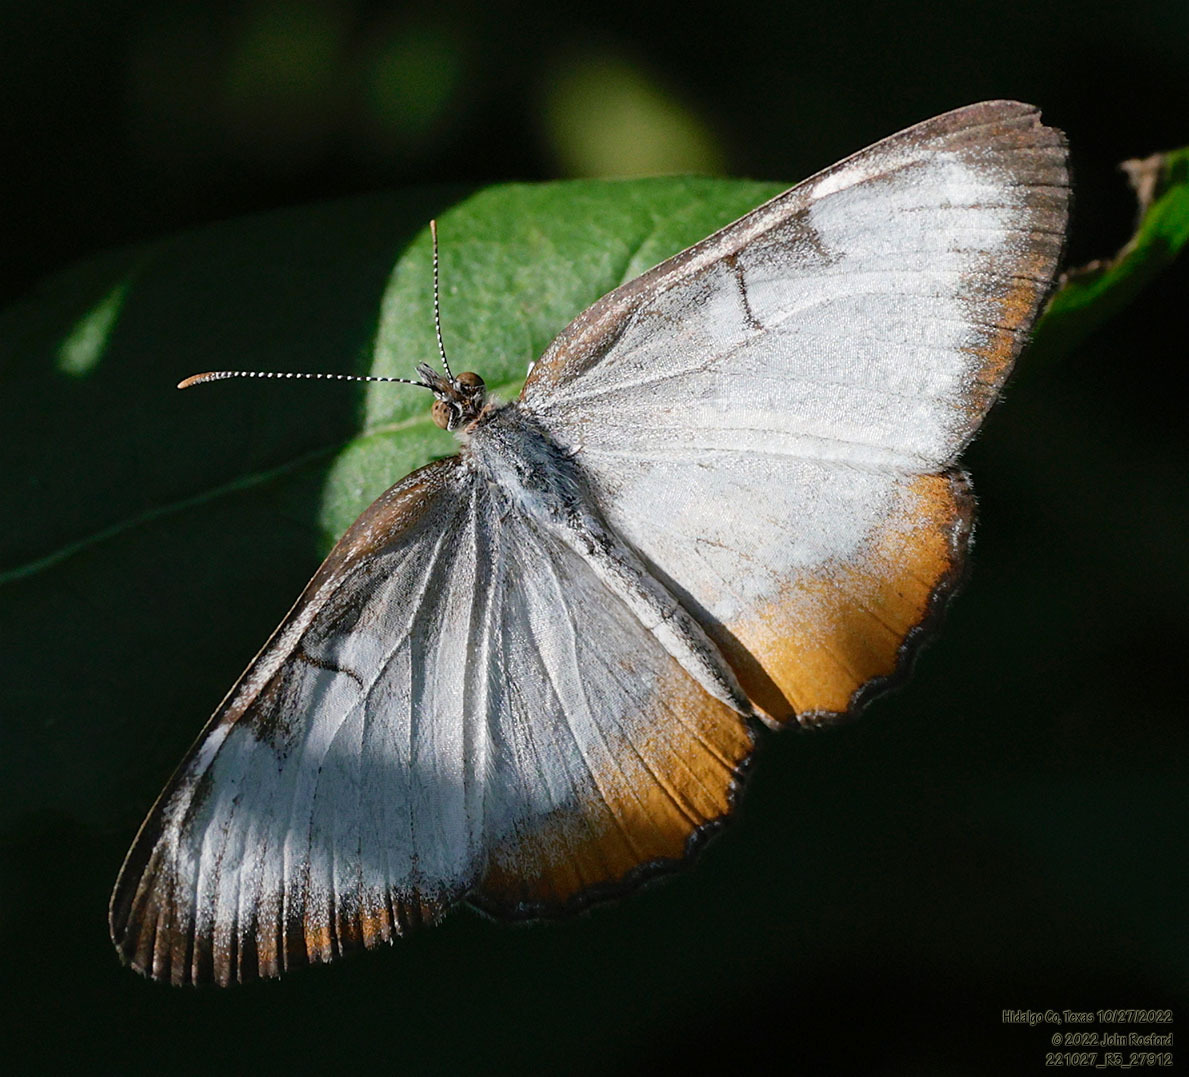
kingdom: Animalia
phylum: Arthropoda
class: Insecta
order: Lepidoptera
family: Nymphalidae
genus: Mestra
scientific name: Mestra amymone
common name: Common mestra
